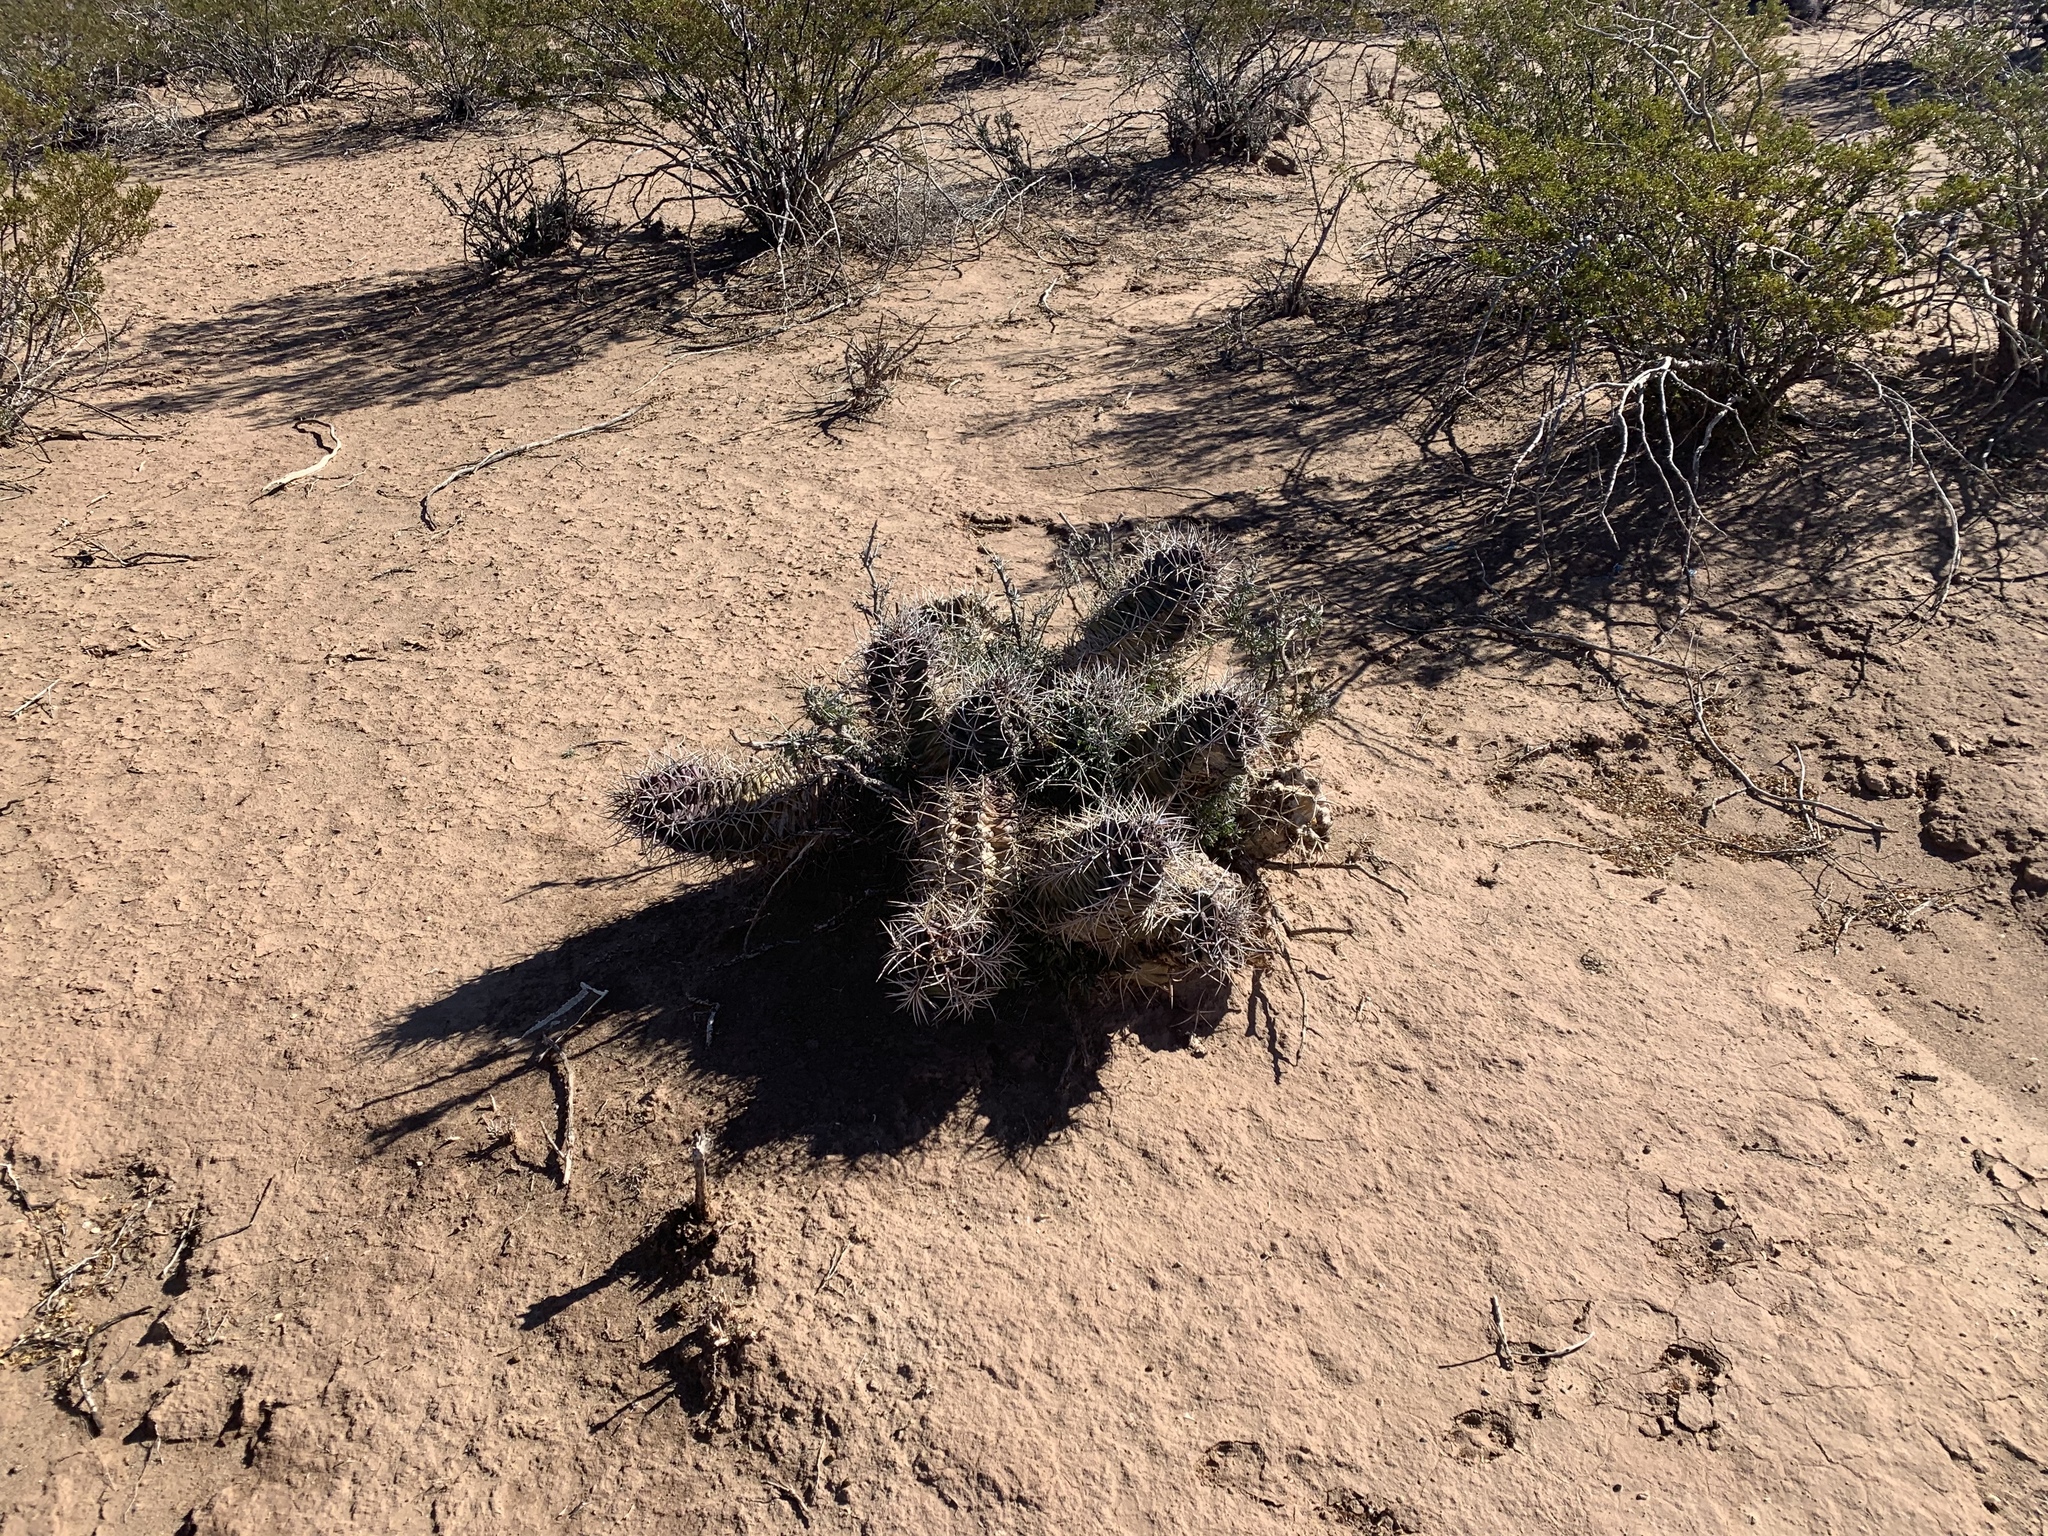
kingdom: Plantae
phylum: Tracheophyta
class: Magnoliopsida
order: Caryophyllales
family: Cactaceae
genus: Echinocereus
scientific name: Echinocereus triglochidiatus
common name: Claretcup hedgehog
